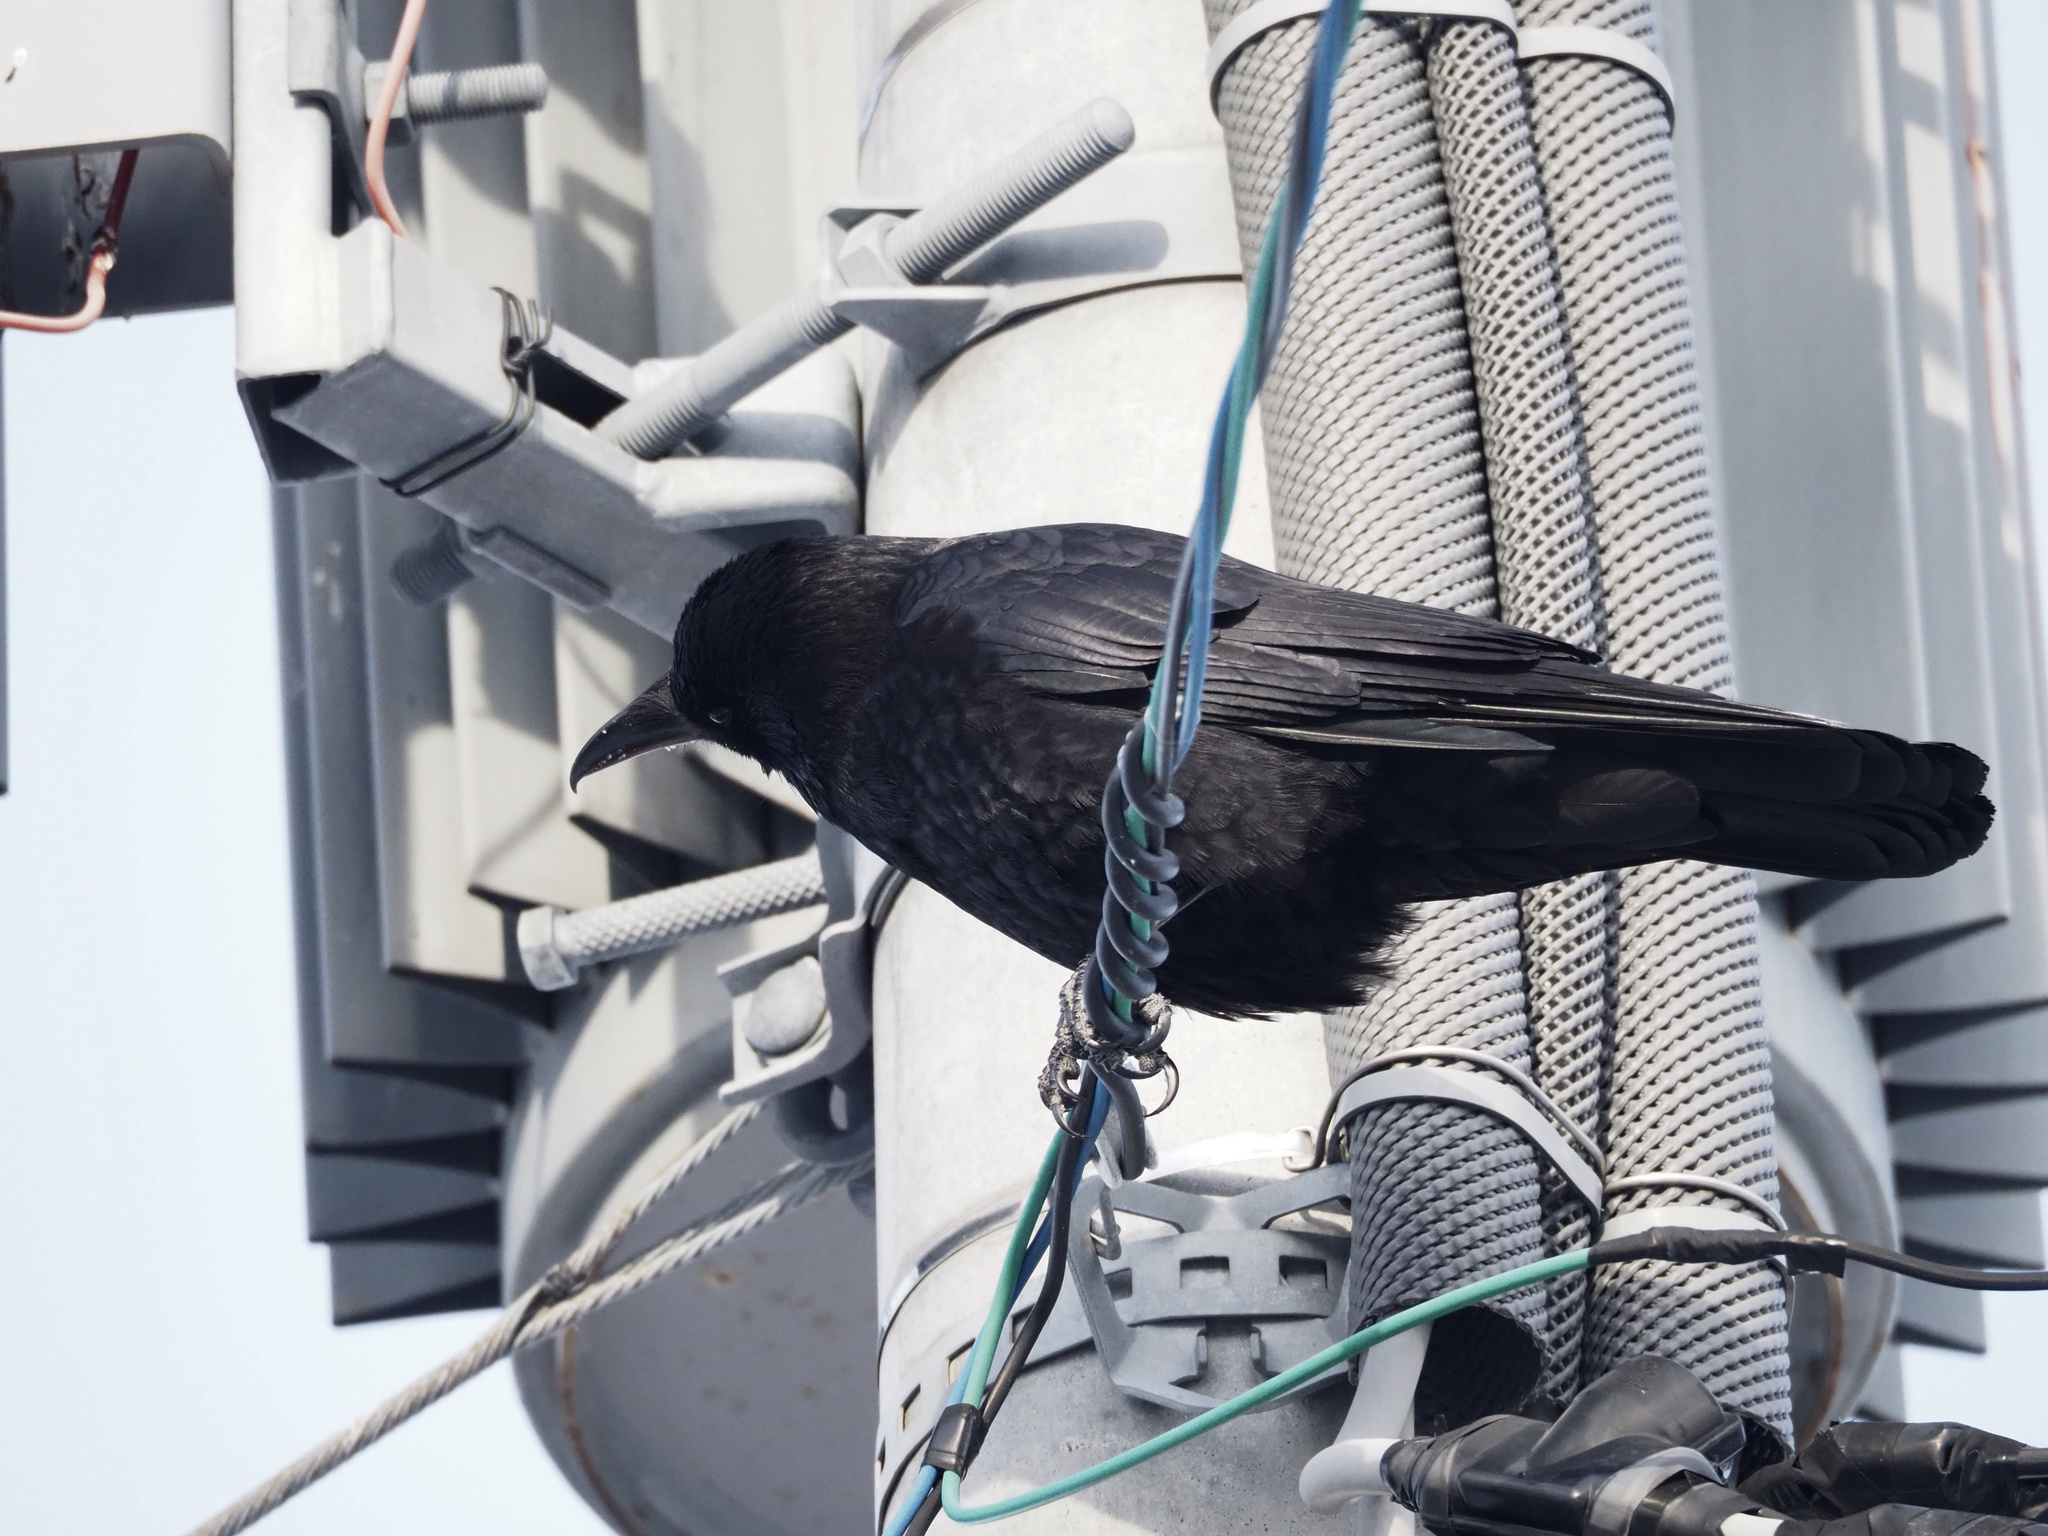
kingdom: Animalia
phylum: Chordata
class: Aves
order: Passeriformes
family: Corvidae
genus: Corvus
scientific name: Corvus corone
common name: Carrion crow
